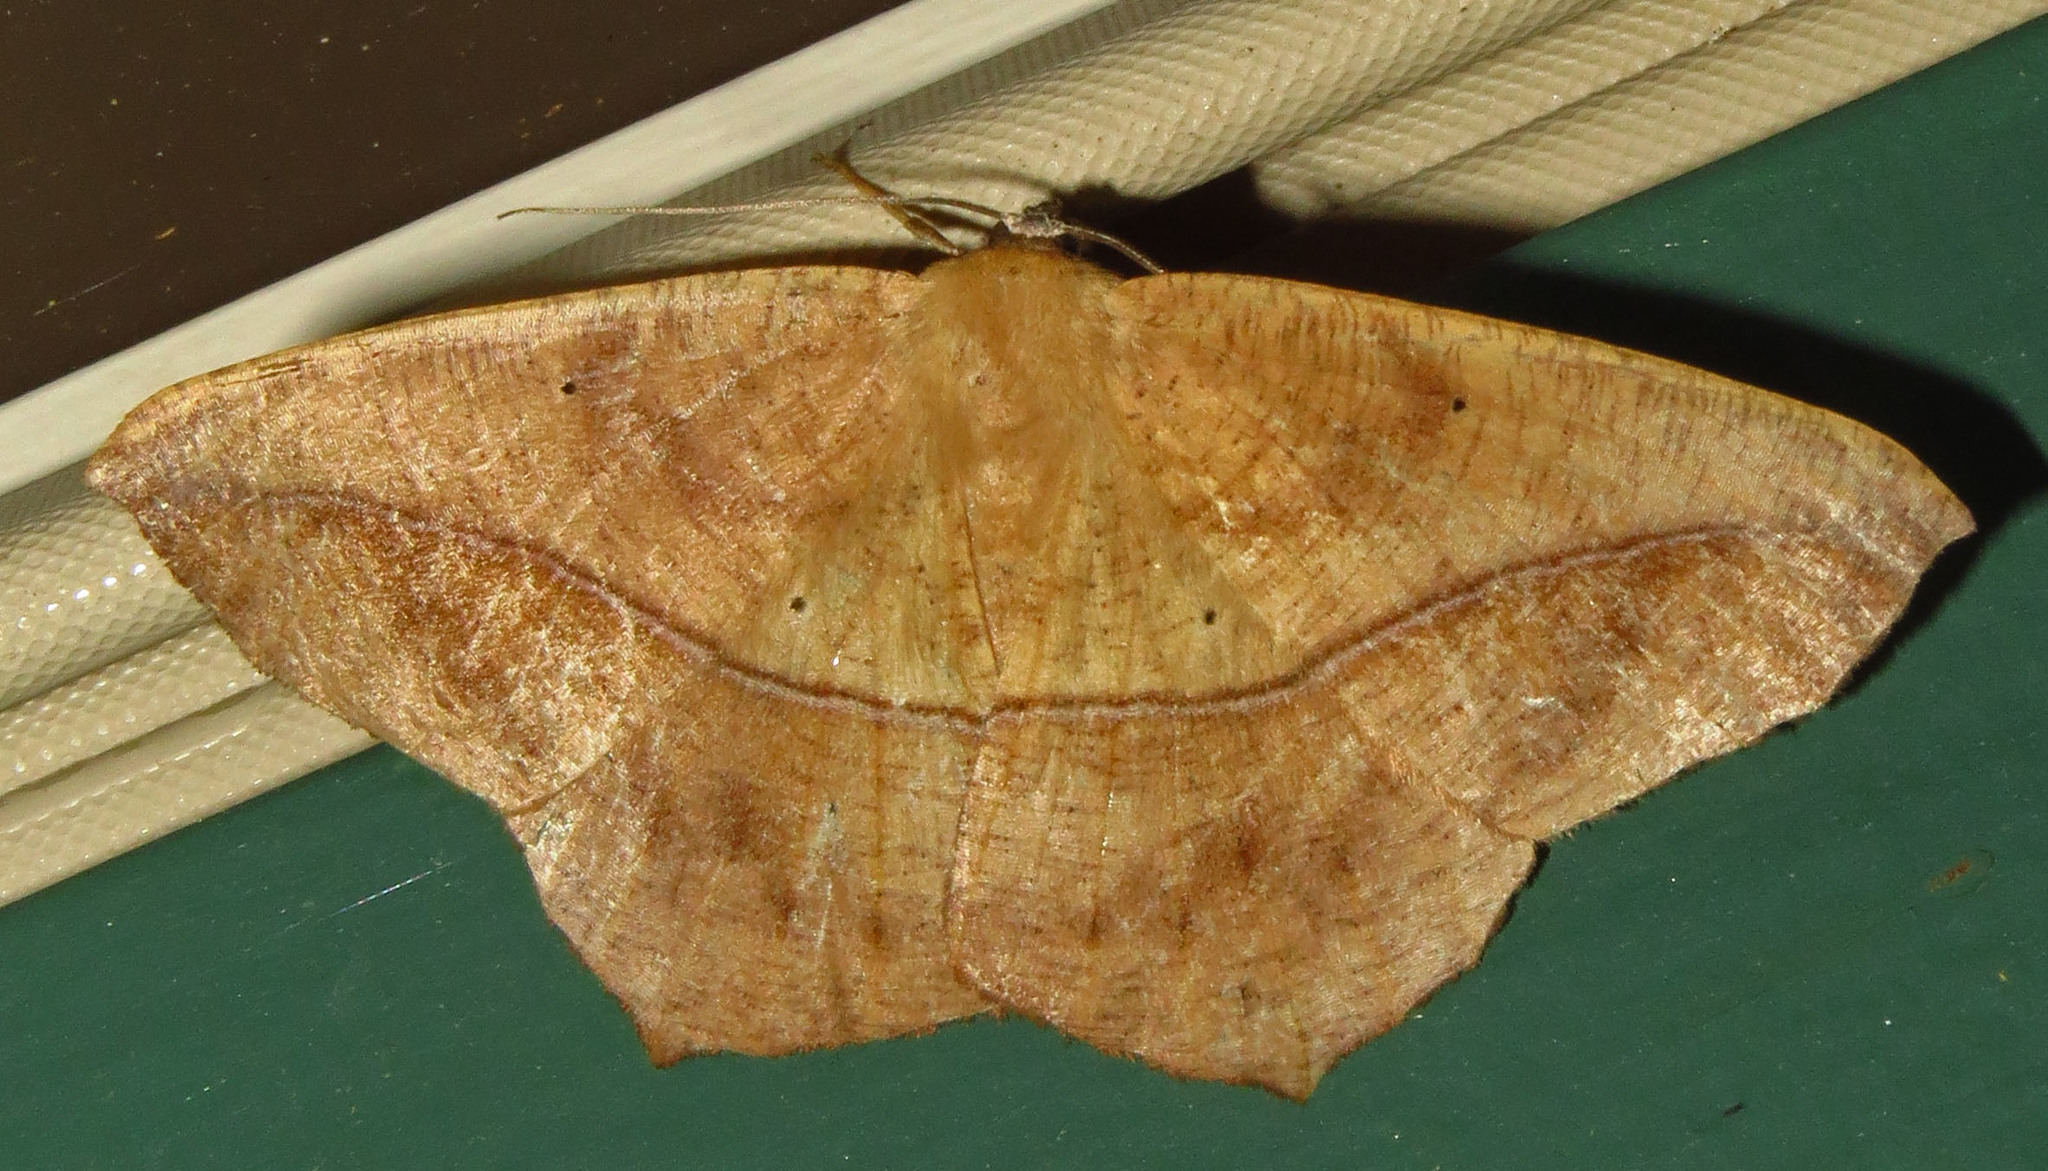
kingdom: Animalia
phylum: Arthropoda
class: Insecta
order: Lepidoptera
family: Geometridae
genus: Prochoerodes
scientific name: Prochoerodes lineola
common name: Large maple spanworm
